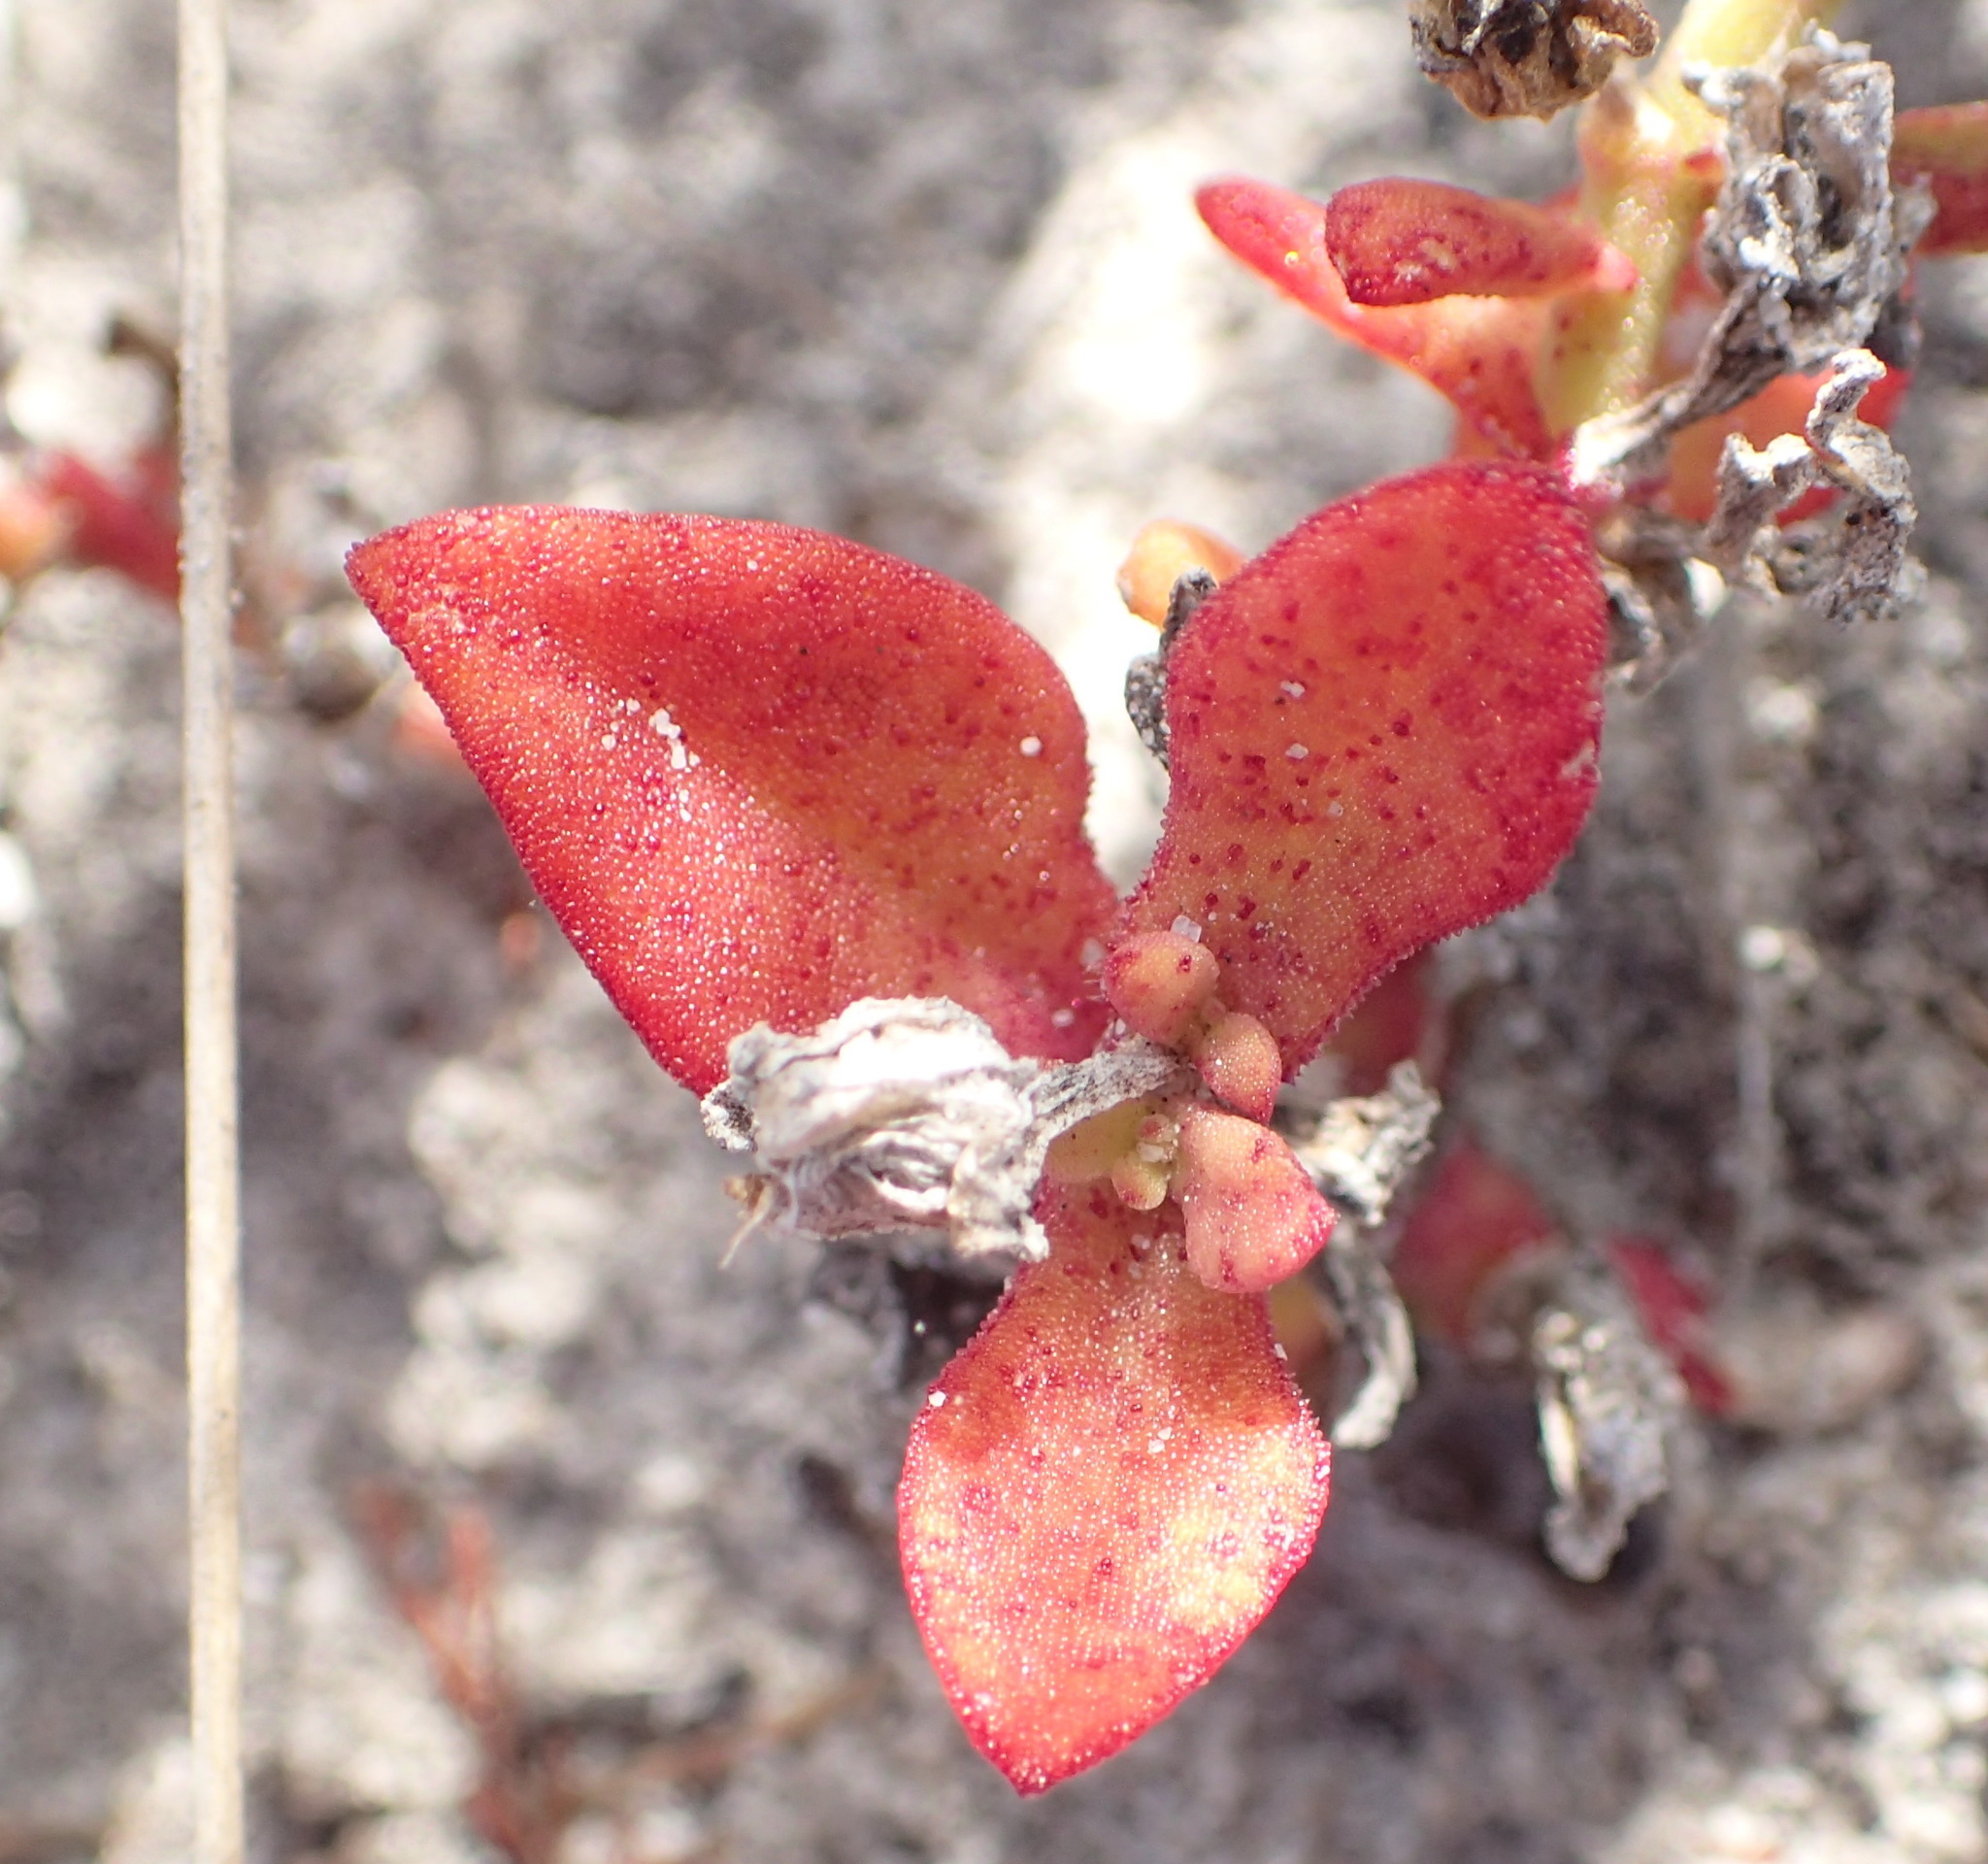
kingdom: Plantae
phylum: Tracheophyta
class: Magnoliopsida
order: Caryophyllales
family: Aizoaceae
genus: Mesembryanthemum
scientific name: Mesembryanthemum aitonis
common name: Angled iceplant
